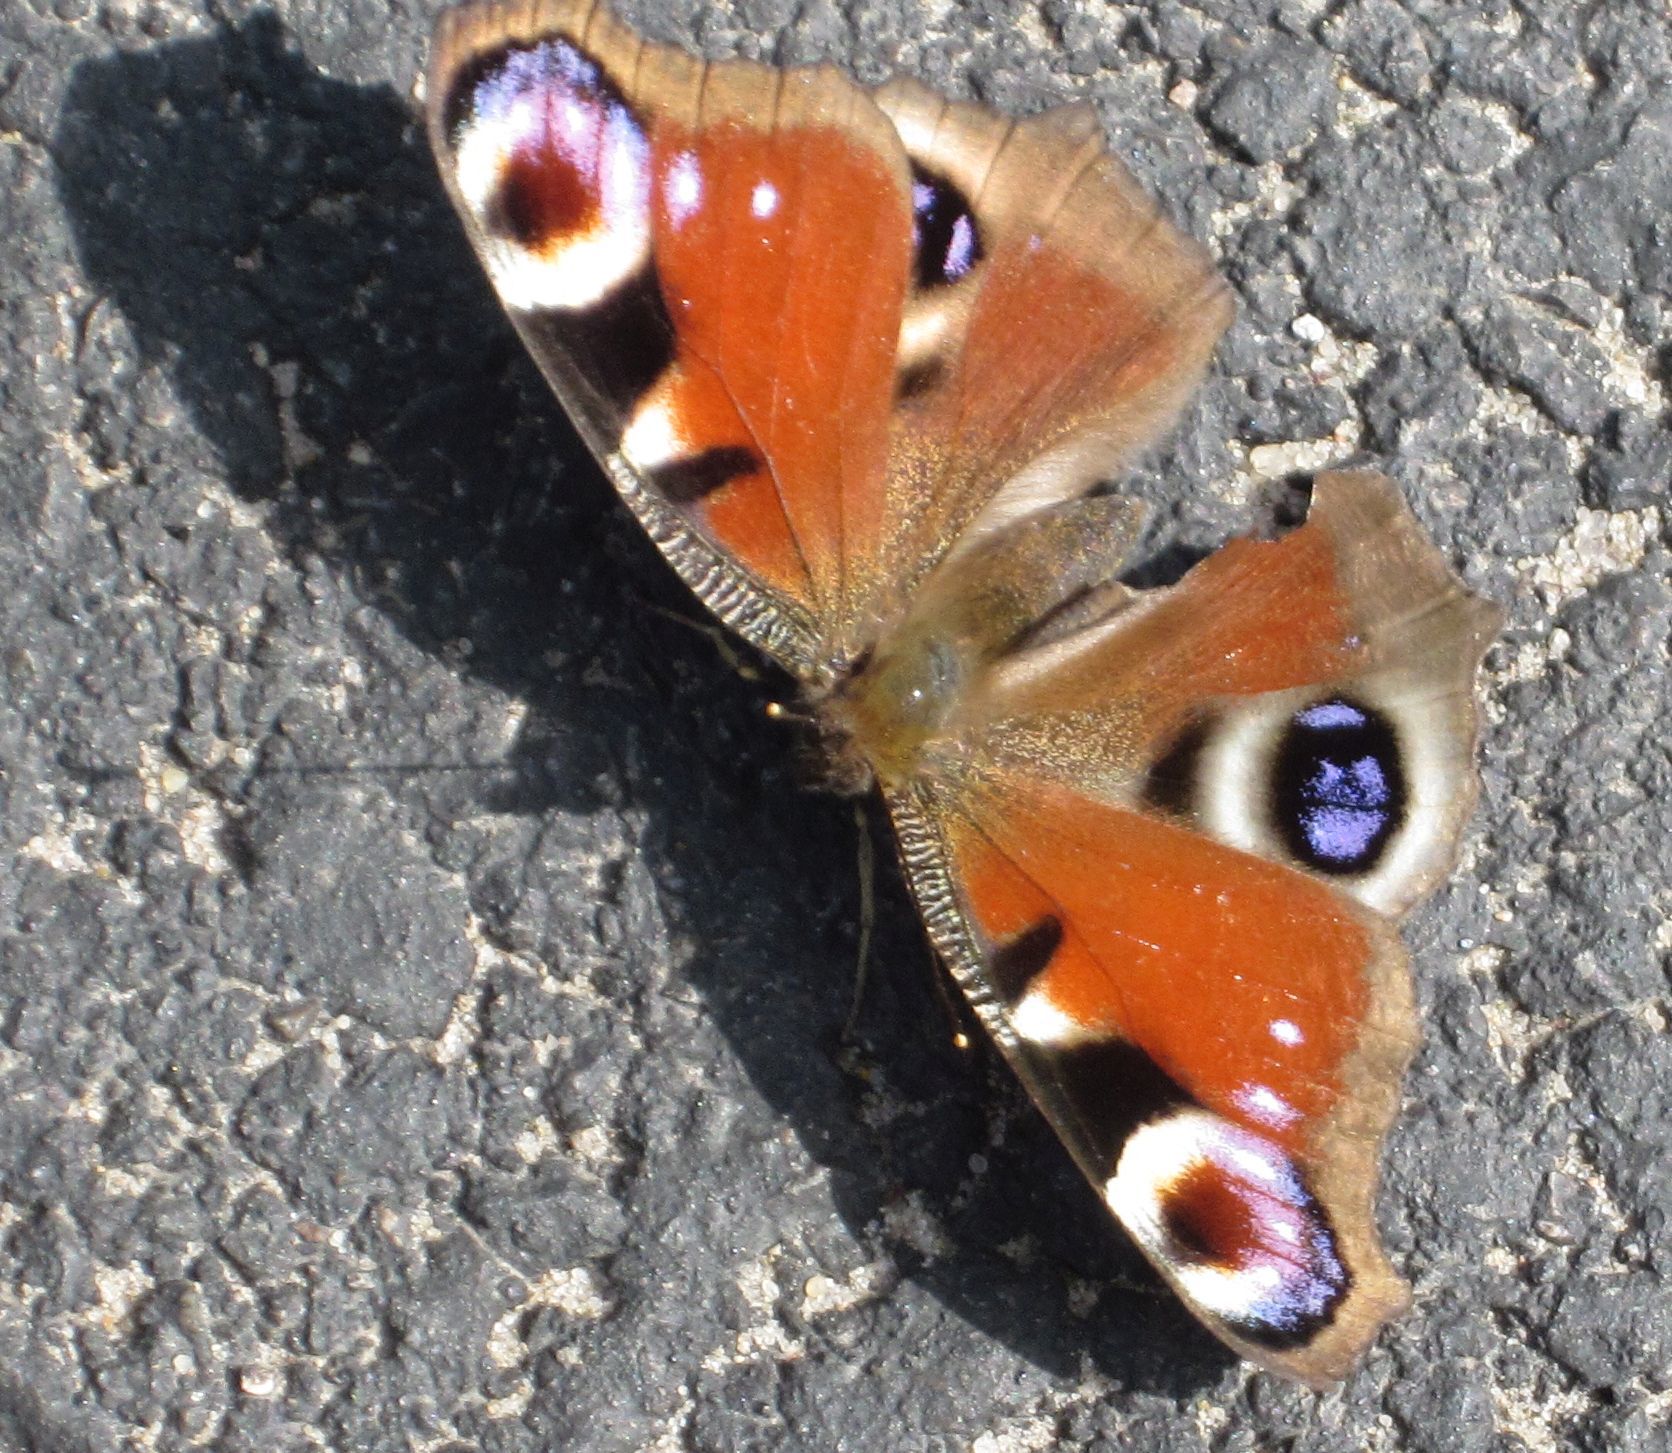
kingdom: Animalia
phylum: Arthropoda
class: Insecta
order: Lepidoptera
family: Nymphalidae
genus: Aglais
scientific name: Aglais io
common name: Peacock
